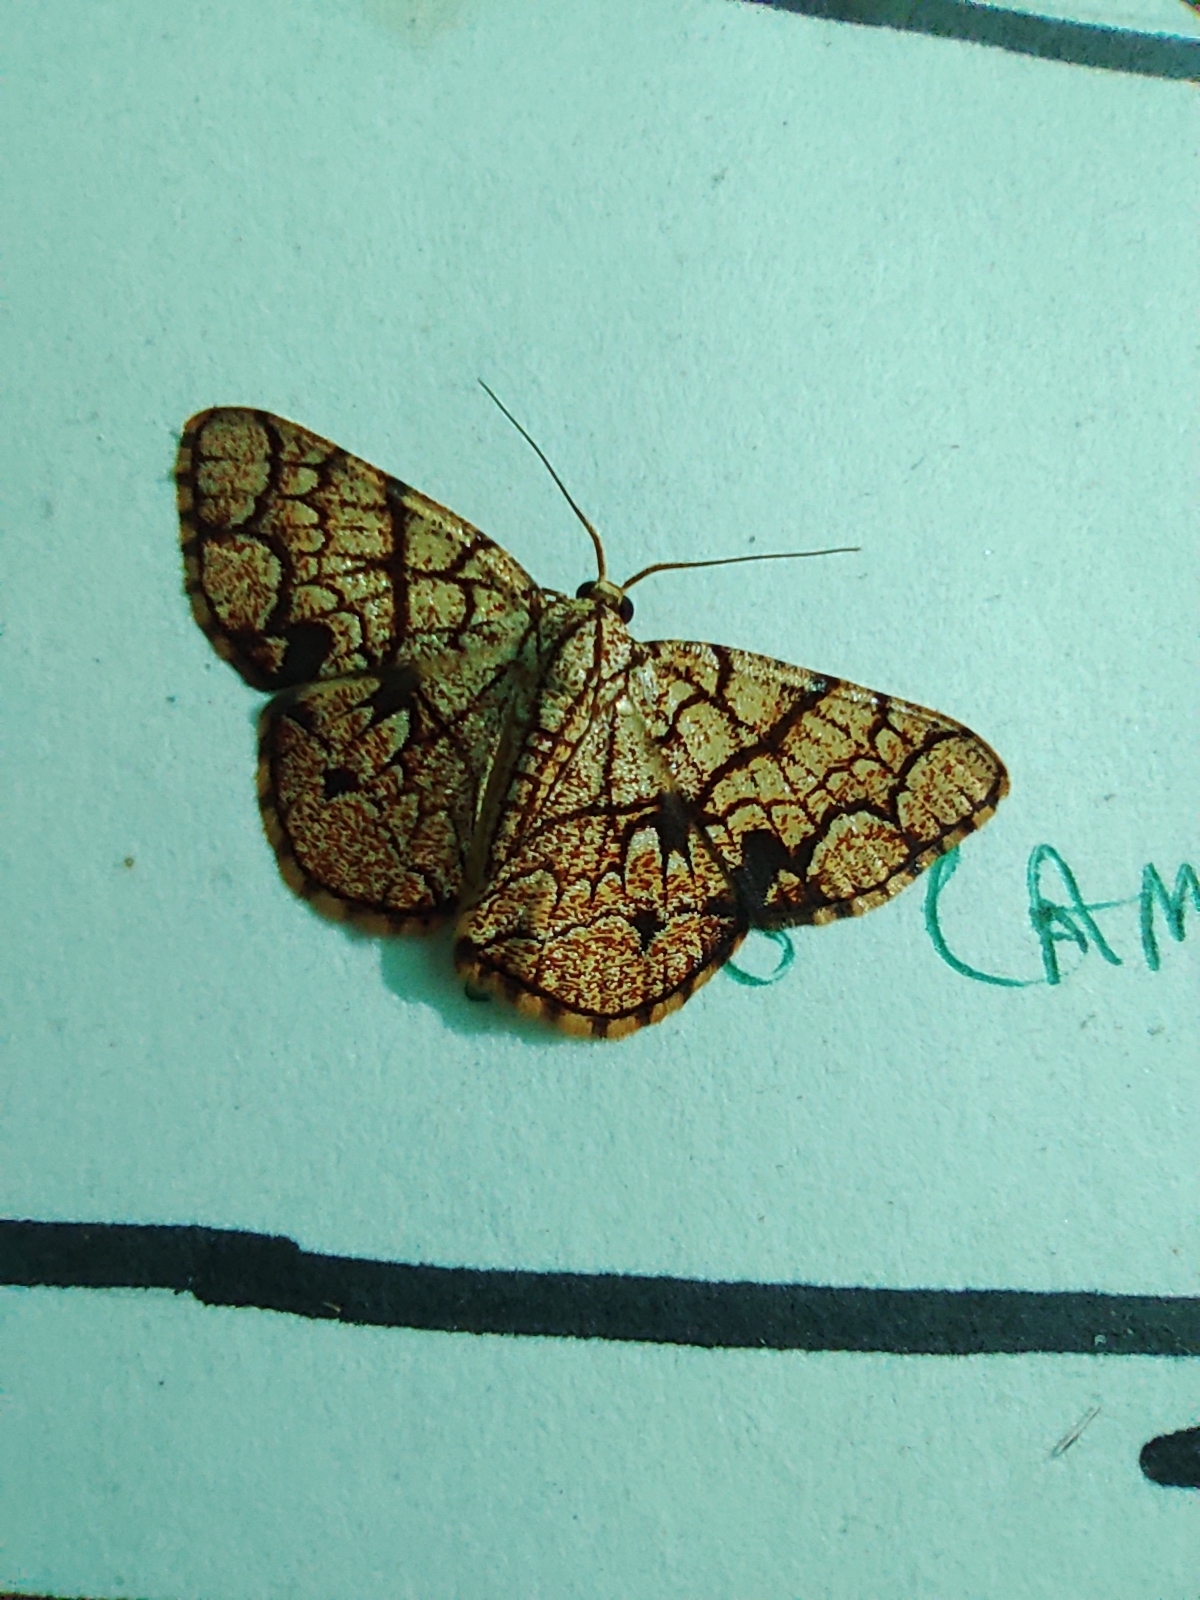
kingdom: Animalia
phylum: Arthropoda
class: Insecta
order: Lepidoptera
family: Geometridae
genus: Heterostegane
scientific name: Heterostegane subtessellata
